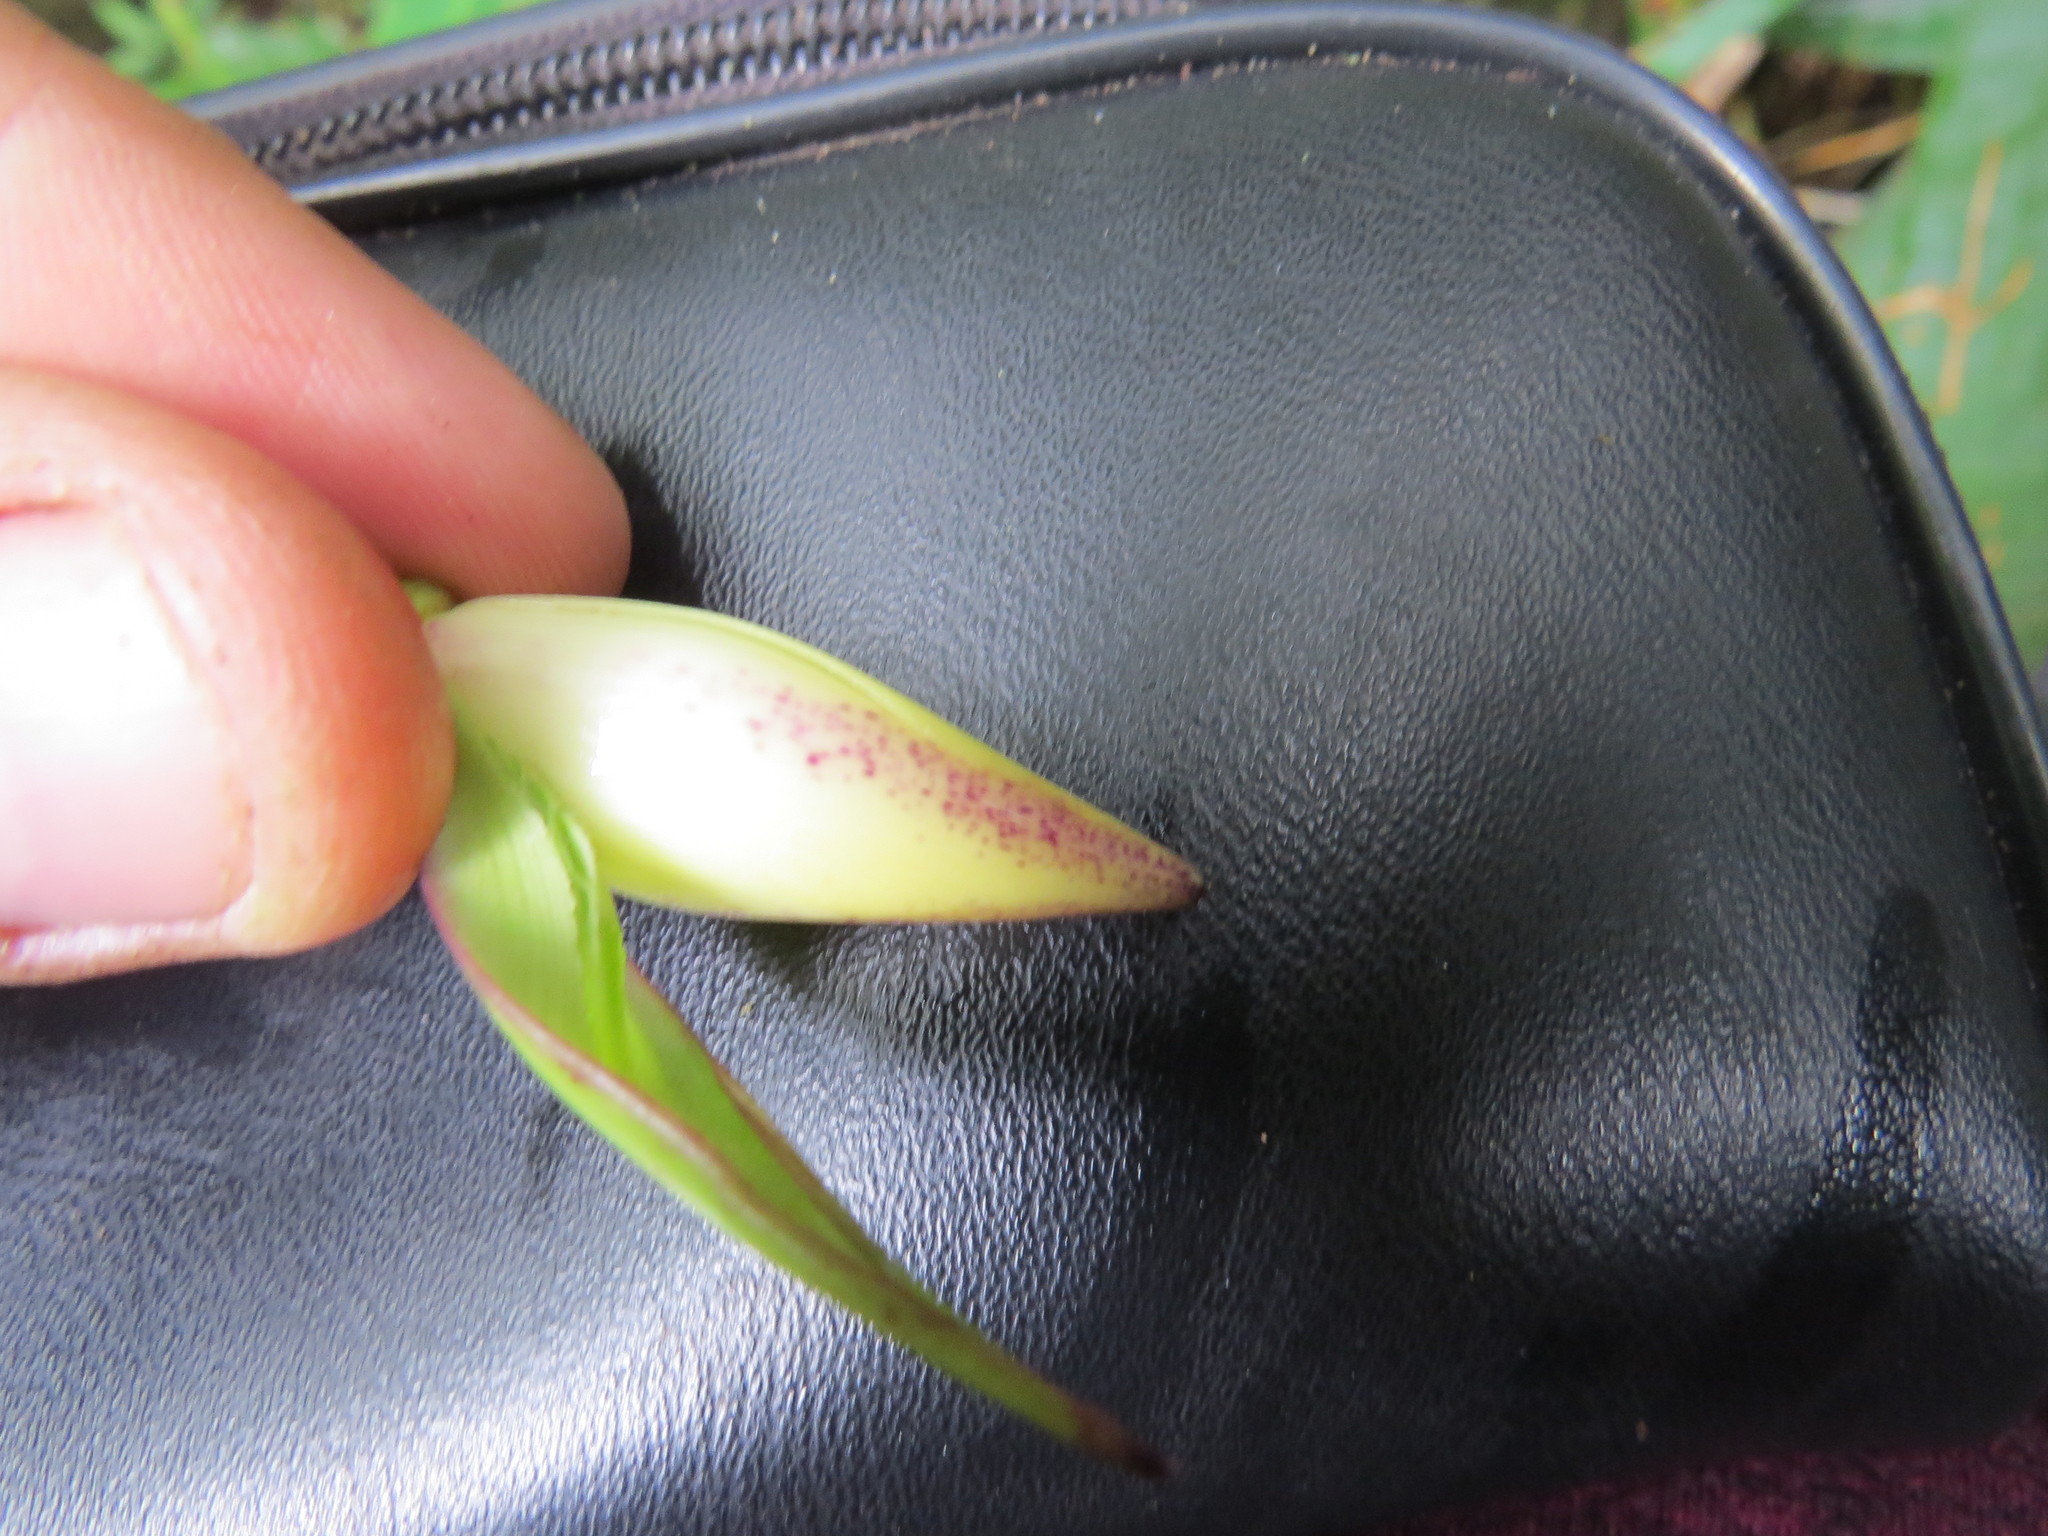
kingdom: Plantae
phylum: Tracheophyta
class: Liliopsida
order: Poales
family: Bromeliaceae
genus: Vriesea
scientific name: Vriesea gigantea
